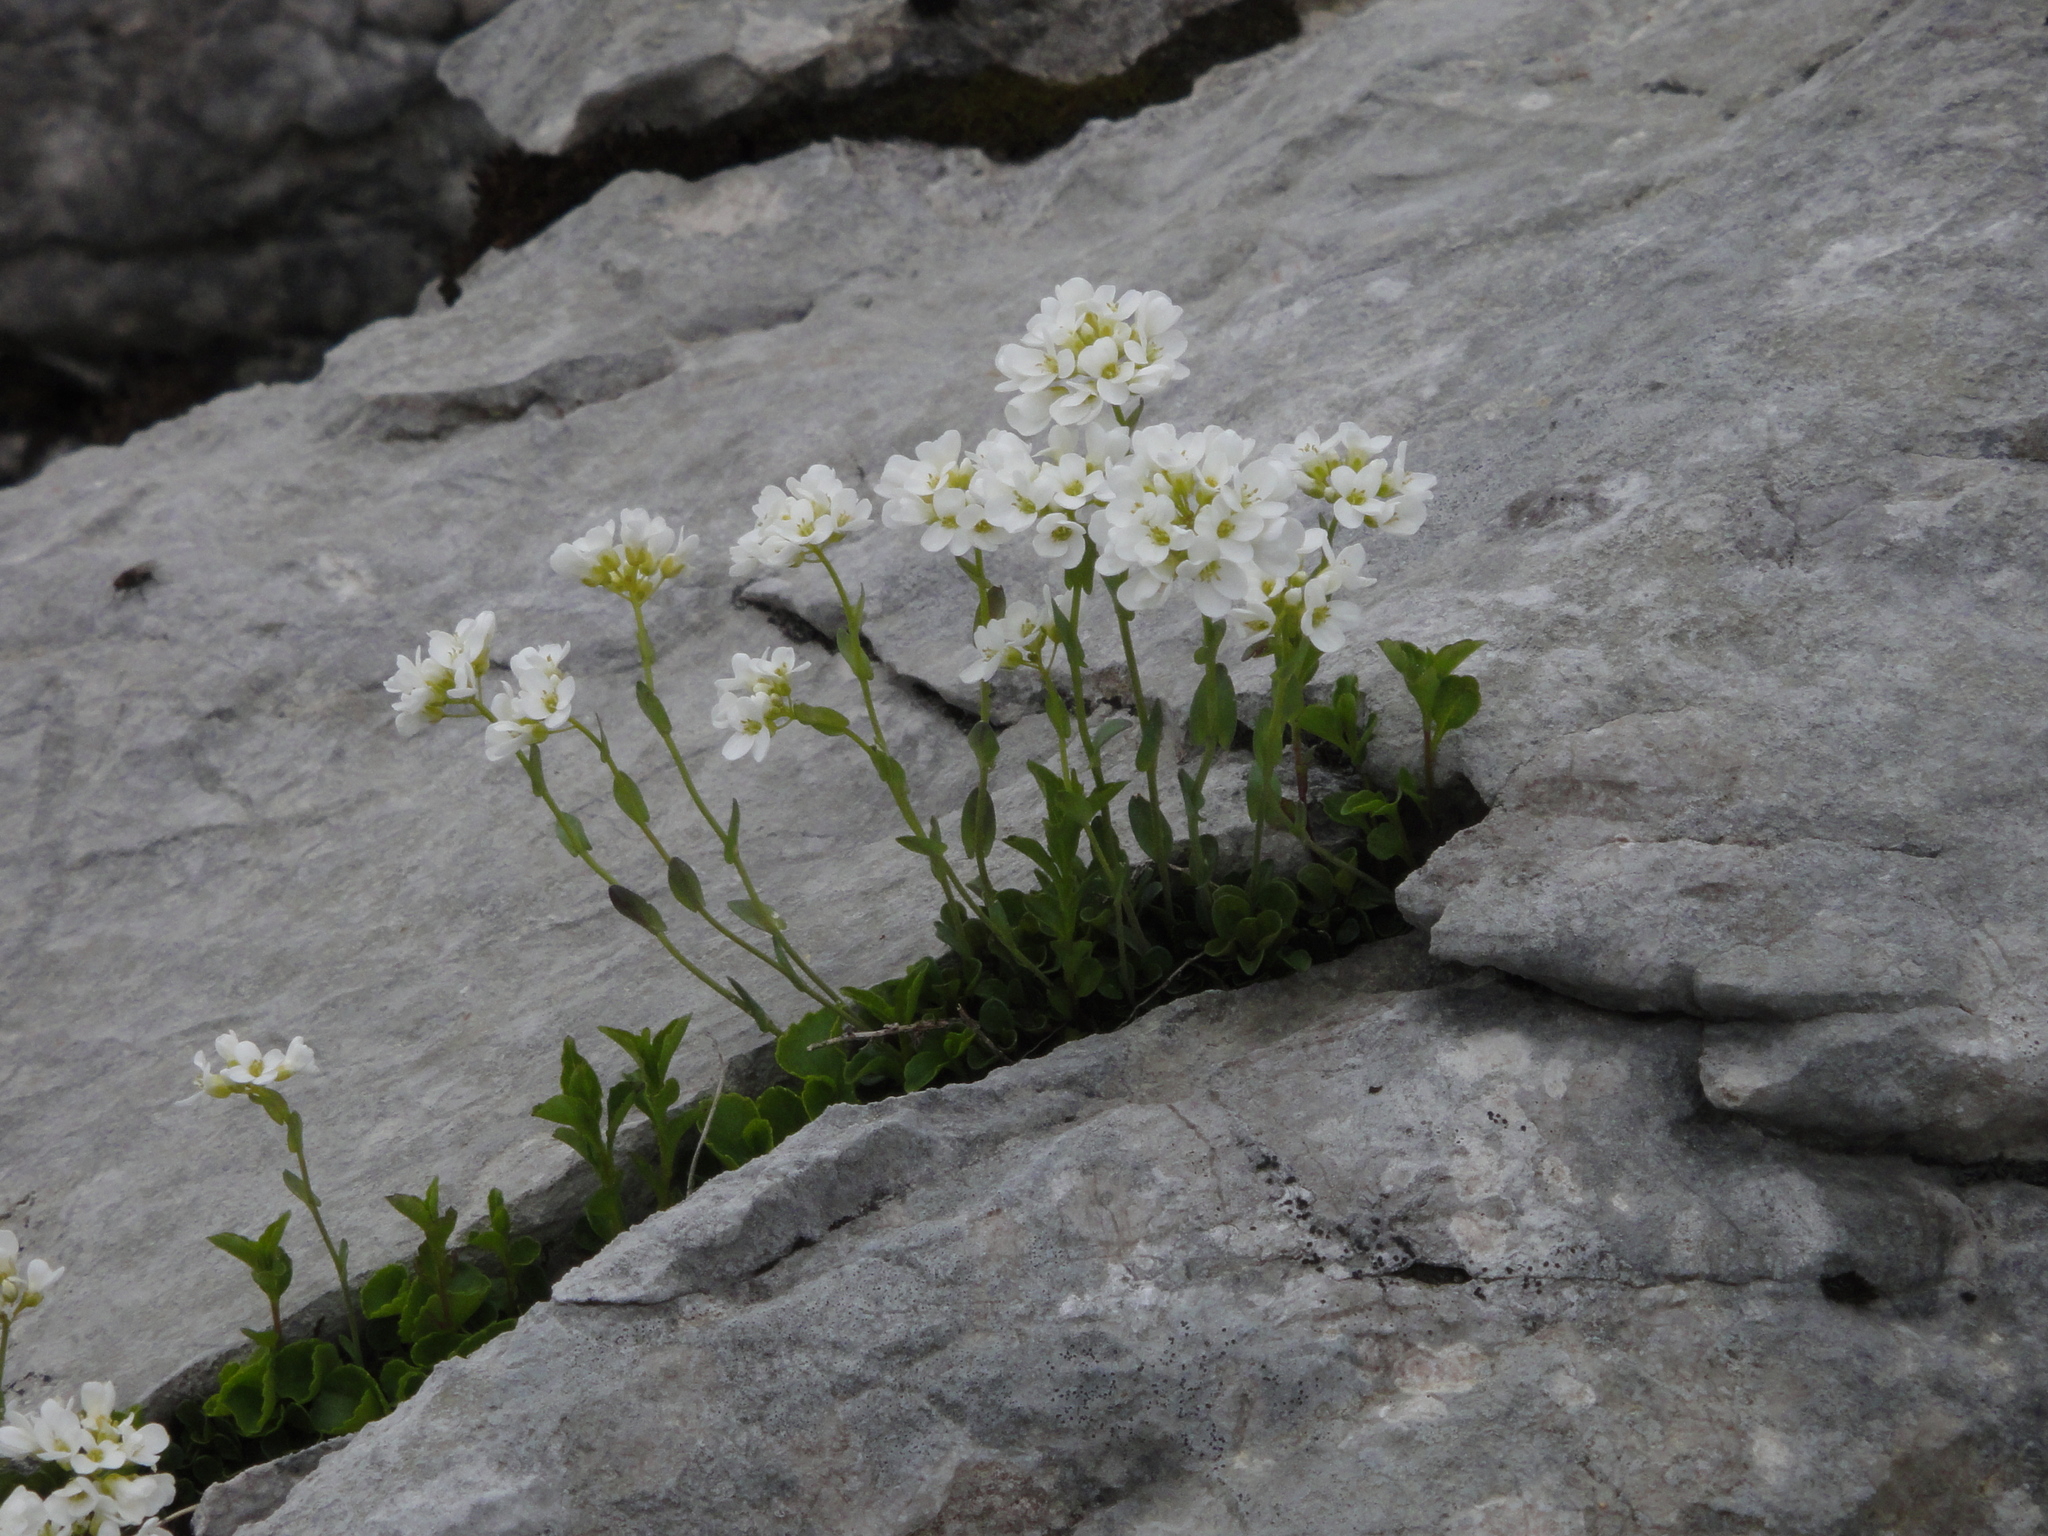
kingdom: Plantae
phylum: Tracheophyta
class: Magnoliopsida
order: Brassicales
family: Brassicaceae
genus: Noccaea
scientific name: Noccaea alpestris
